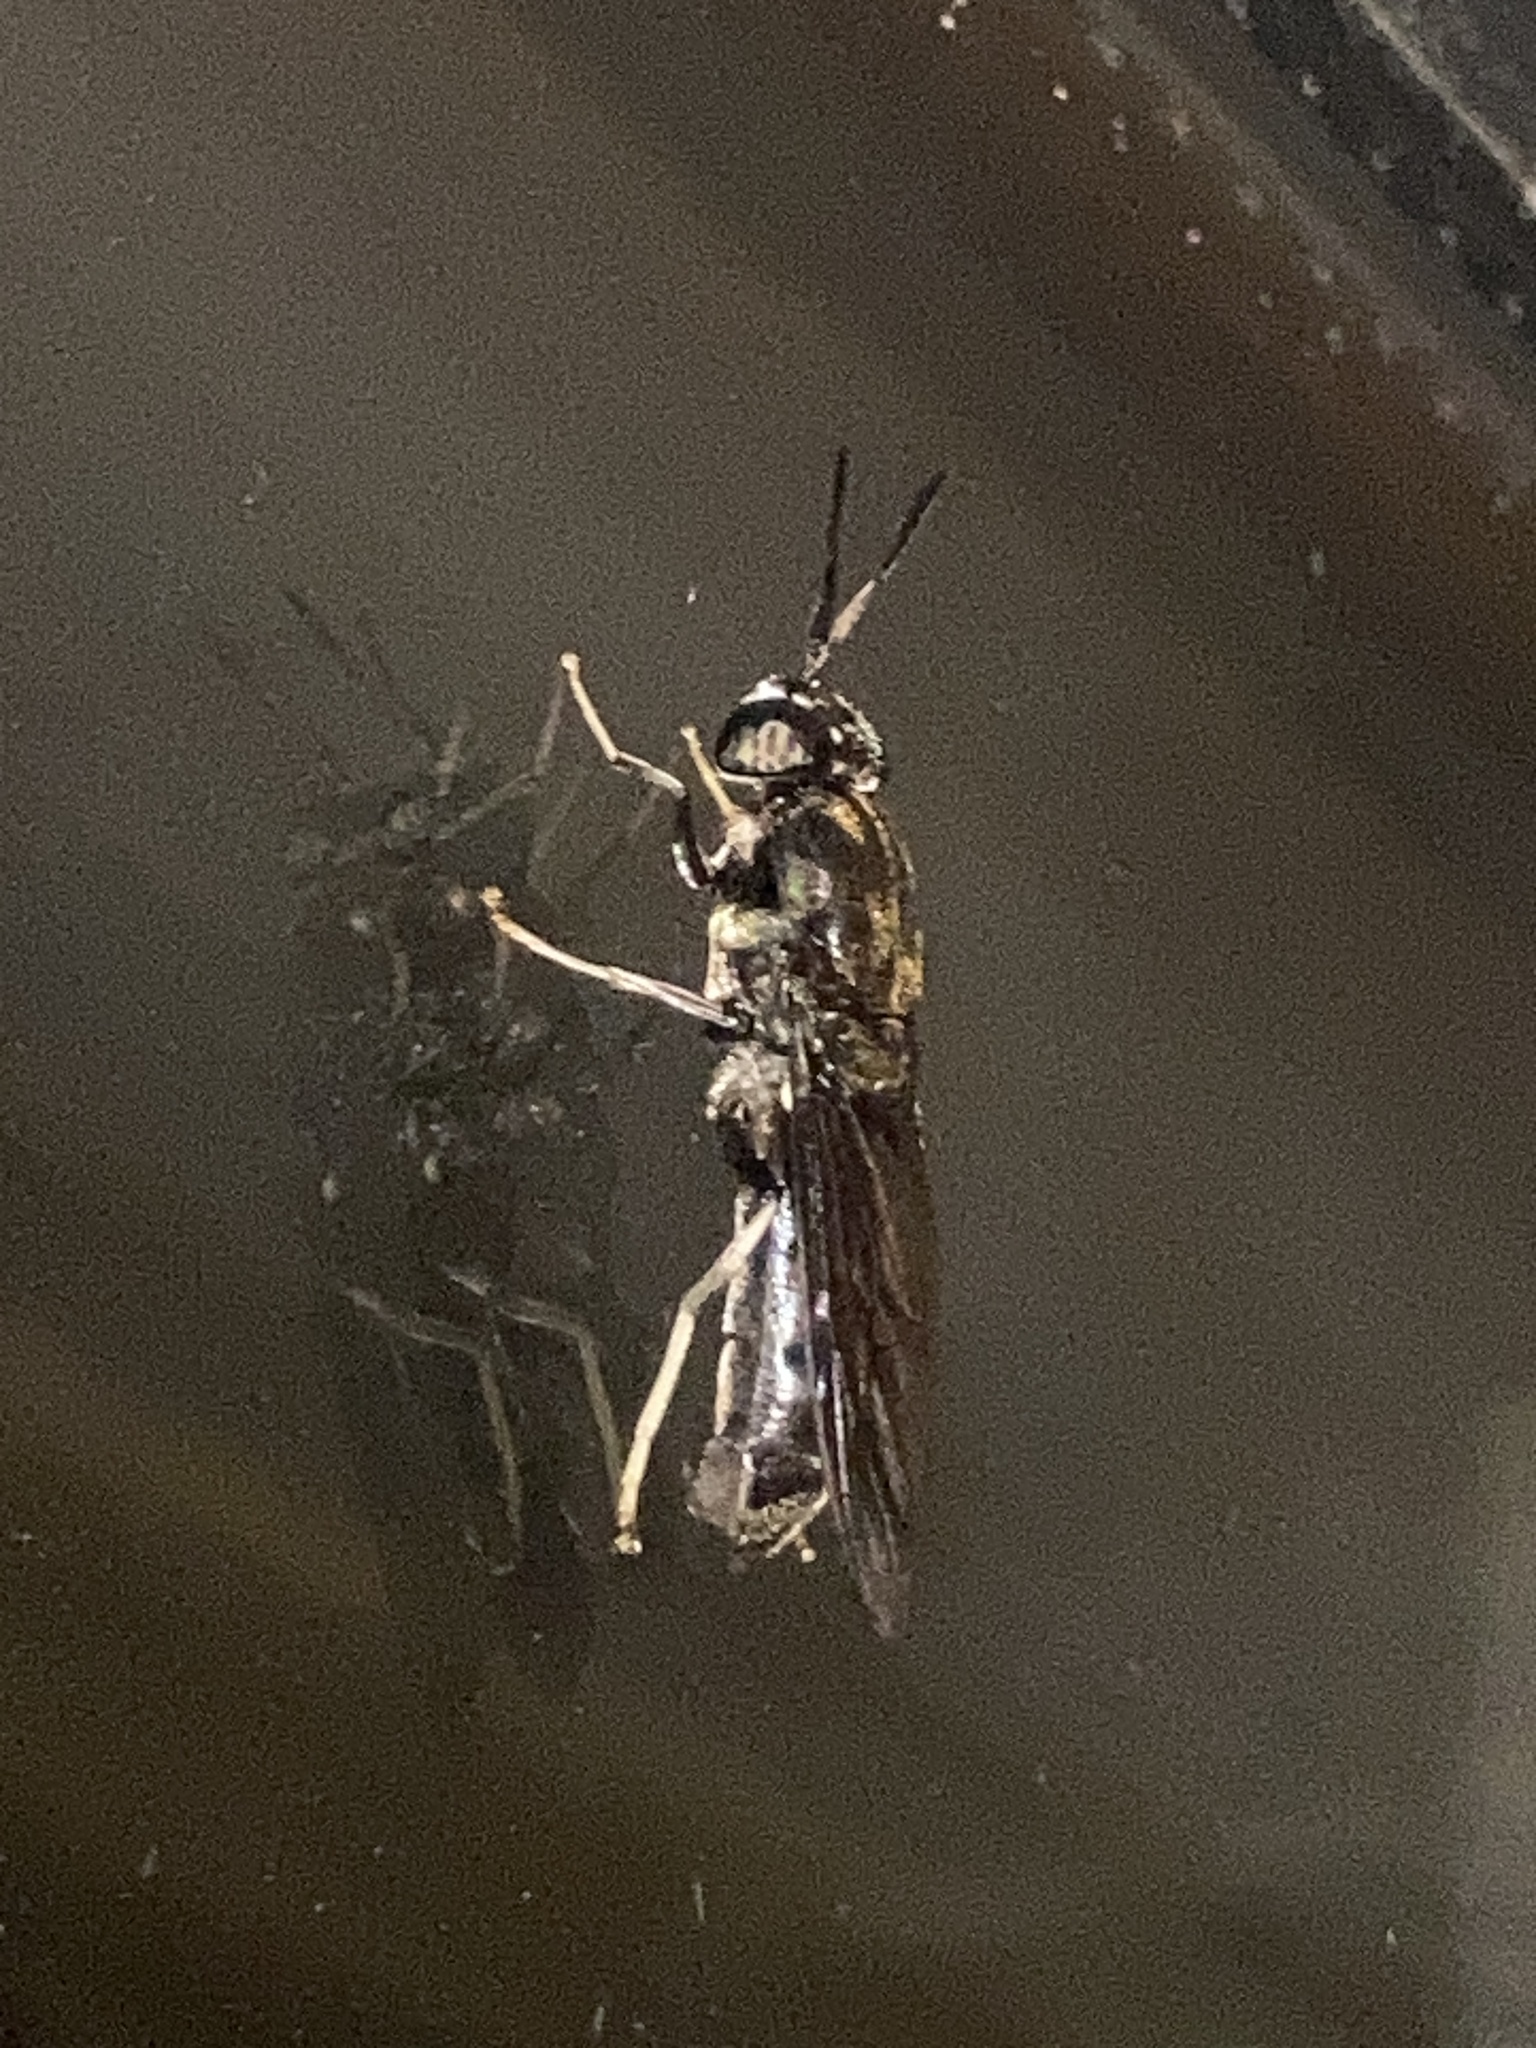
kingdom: Animalia
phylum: Arthropoda
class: Insecta
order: Diptera
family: Stratiomyidae
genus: Hermetia
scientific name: Hermetia illucens
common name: Black soldier fly
